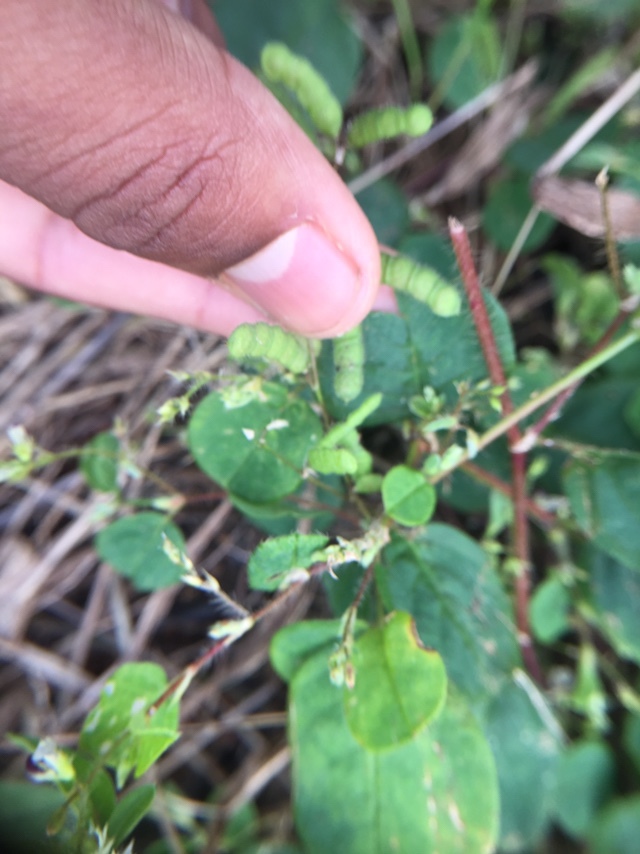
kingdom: Plantae
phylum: Tracheophyta
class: Magnoliopsida
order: Fabales
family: Fabaceae
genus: Alysicarpus
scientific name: Alysicarpus hamosus
